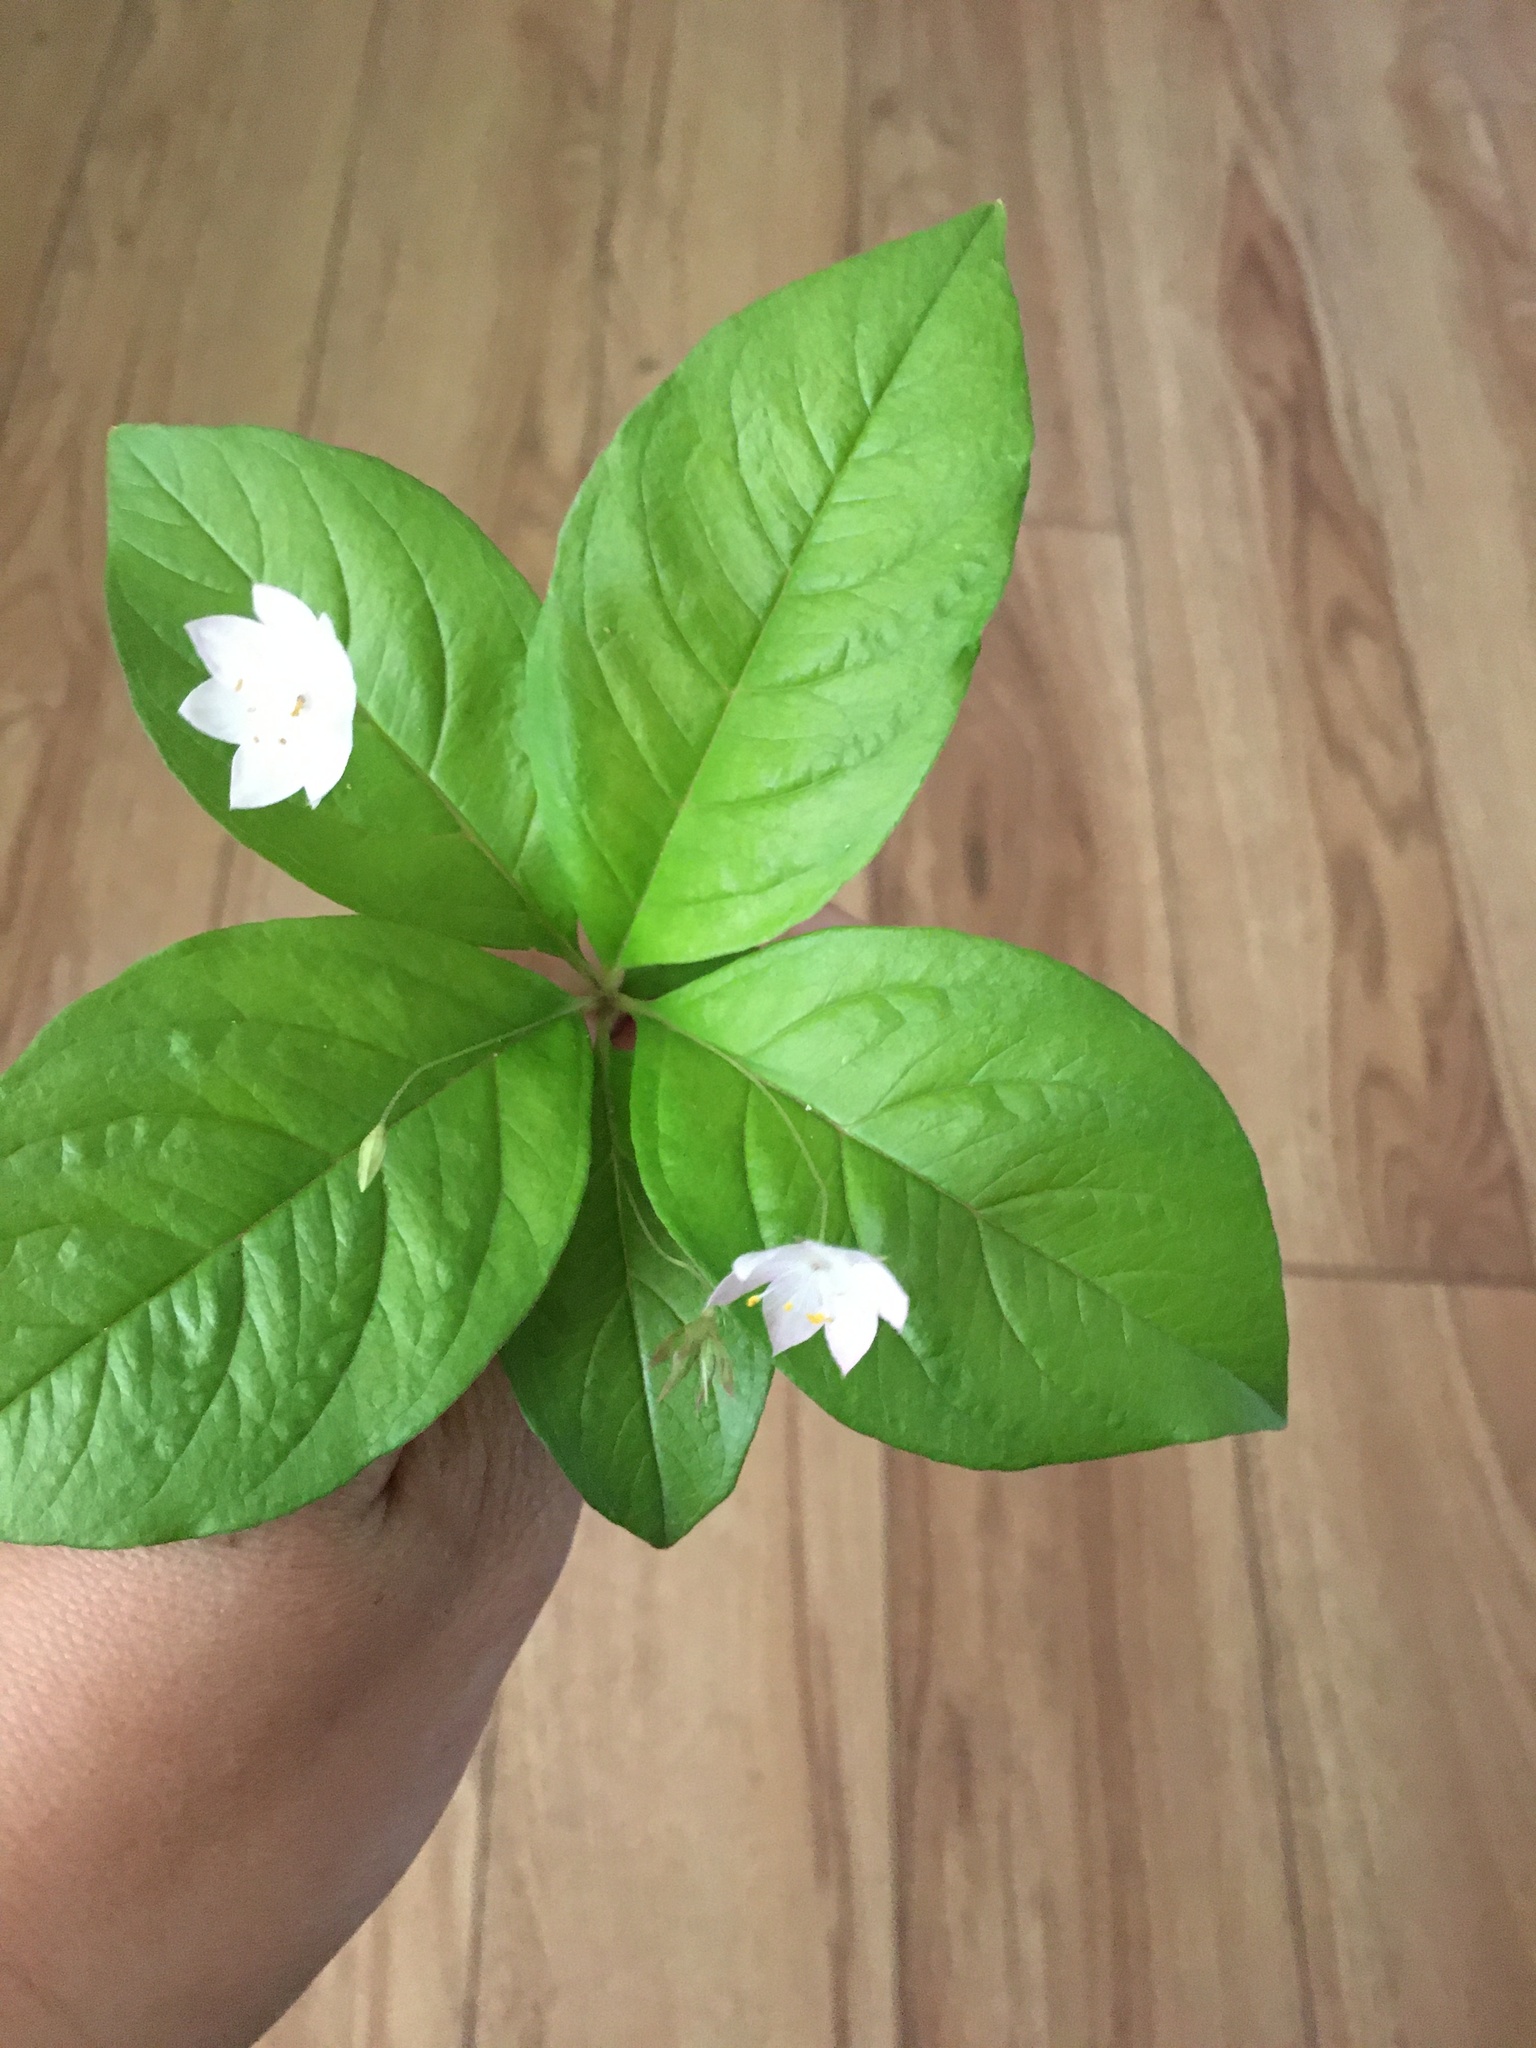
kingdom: Plantae
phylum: Tracheophyta
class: Magnoliopsida
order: Ericales
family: Primulaceae
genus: Lysimachia
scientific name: Lysimachia latifolia
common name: Pacific starflower
